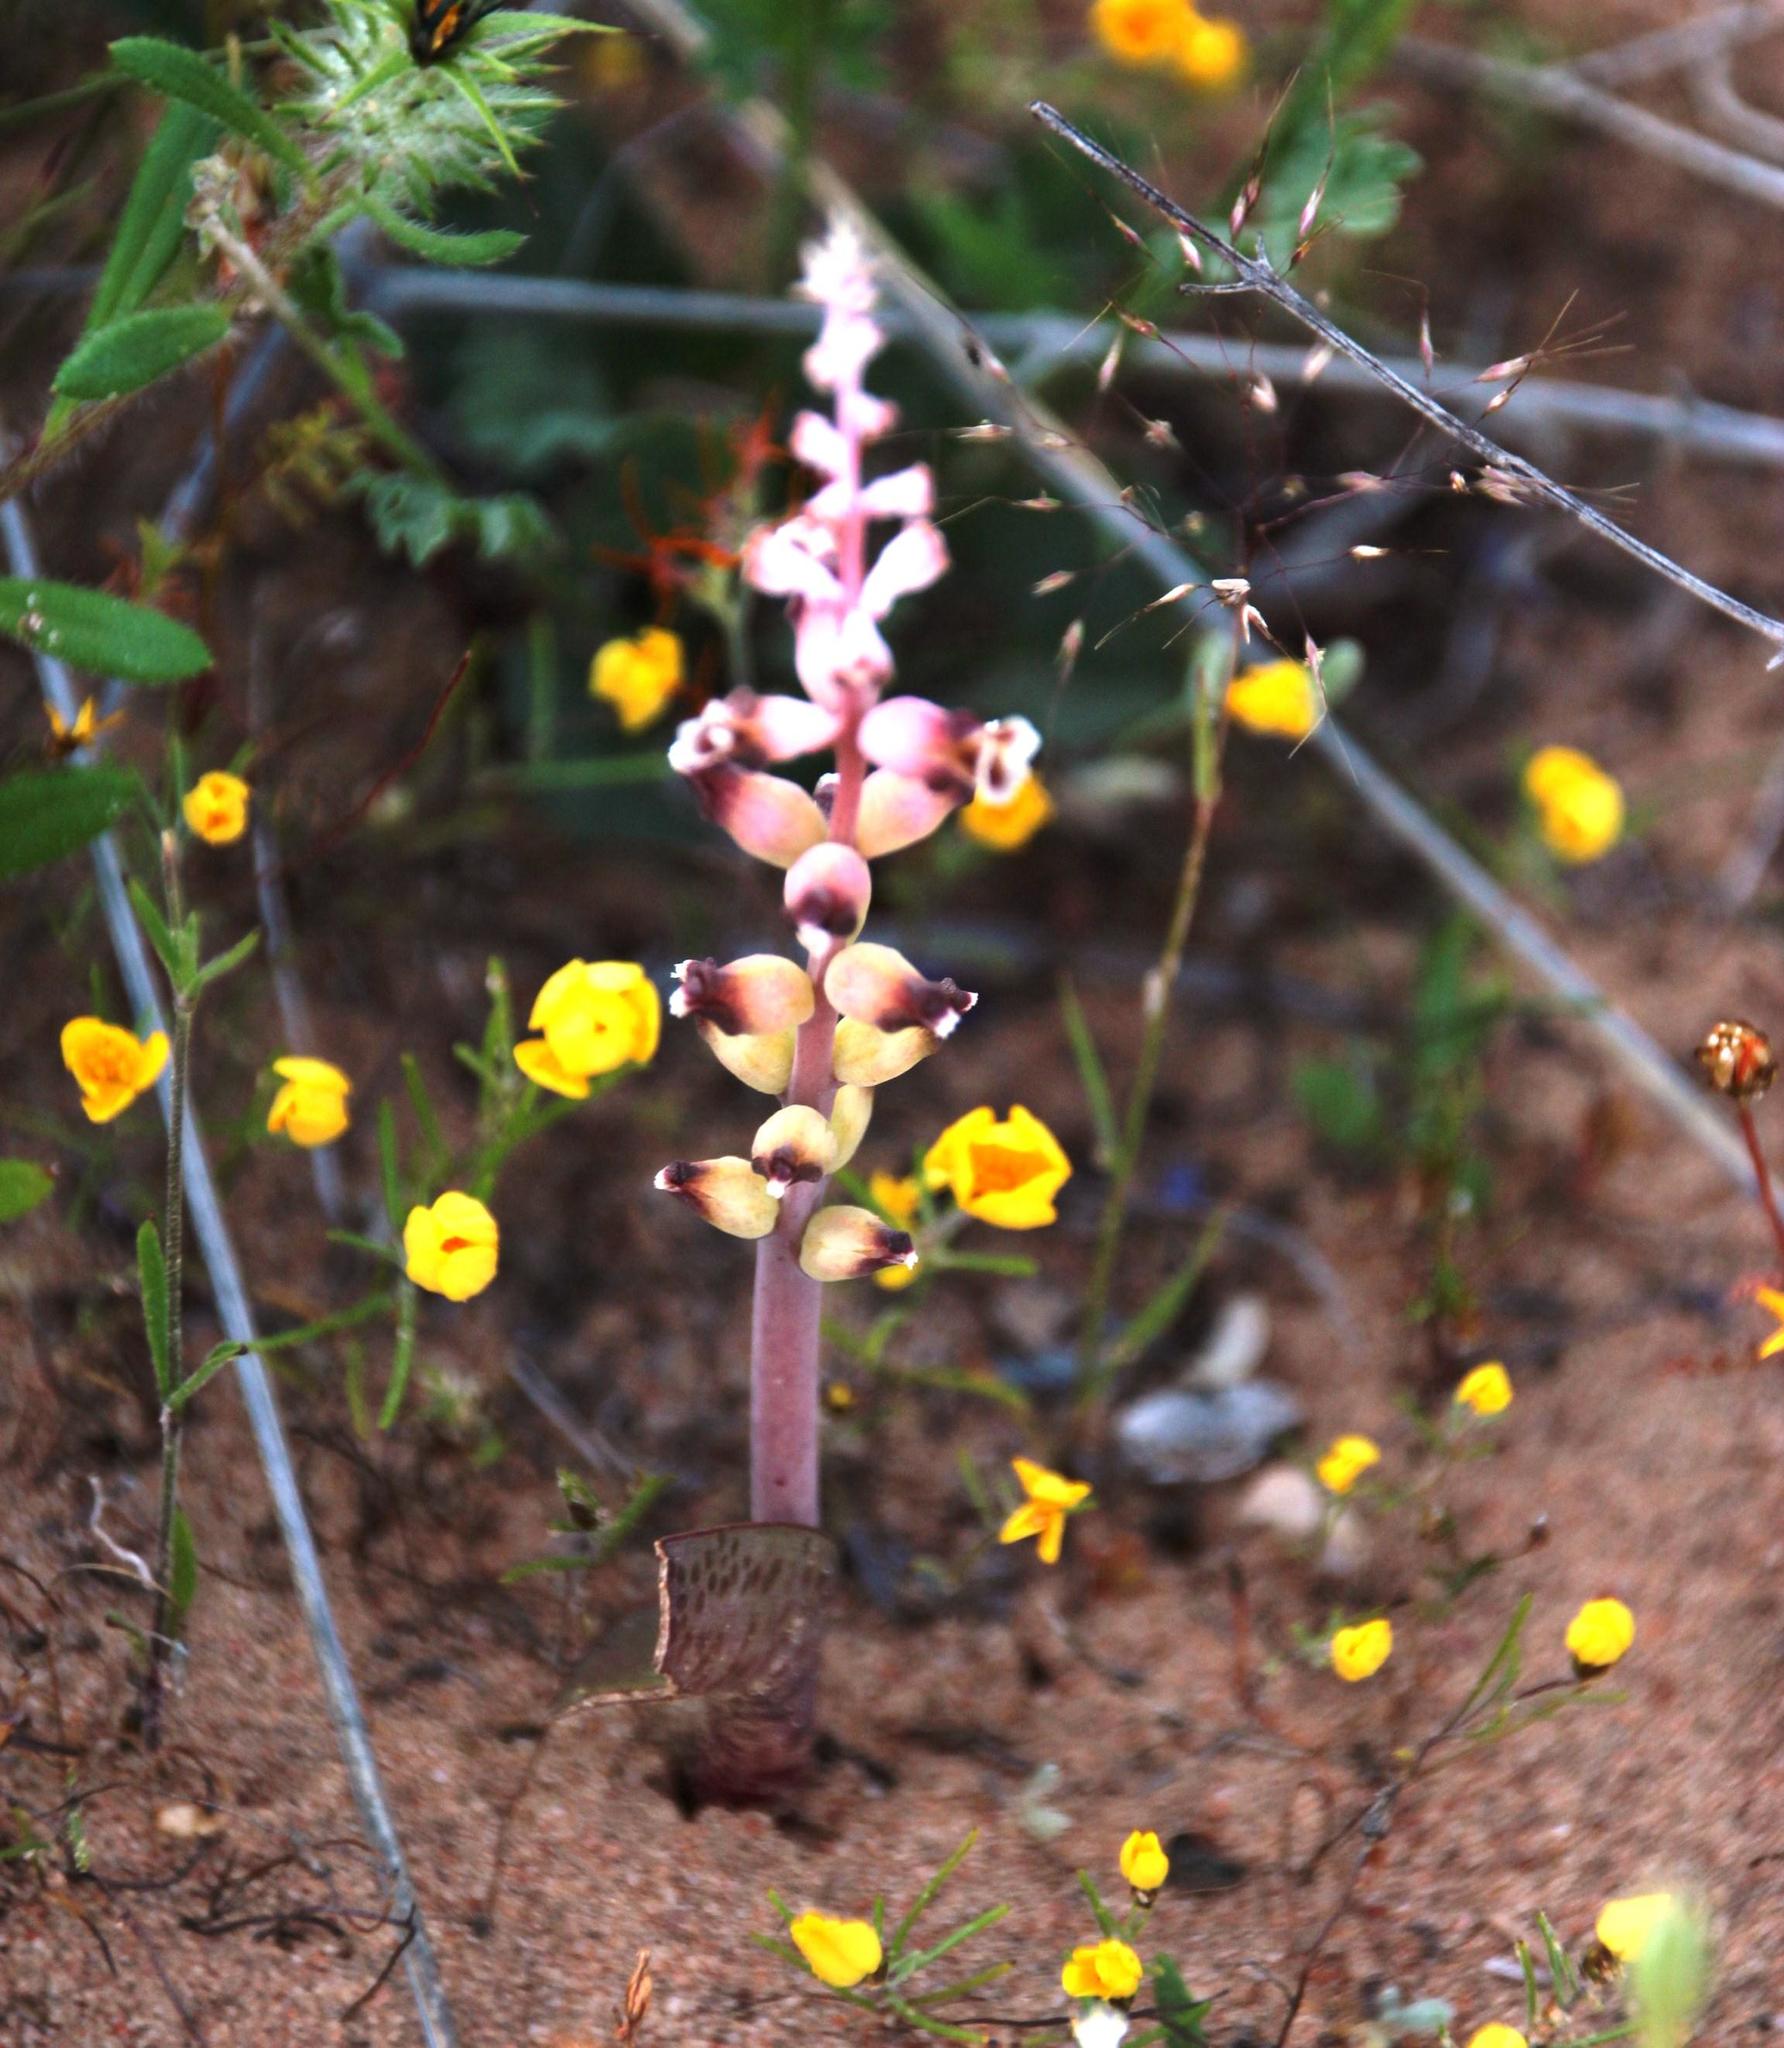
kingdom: Plantae
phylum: Tracheophyta
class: Liliopsida
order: Asparagales
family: Asparagaceae
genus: Lachenalia
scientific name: Lachenalia membranacea
